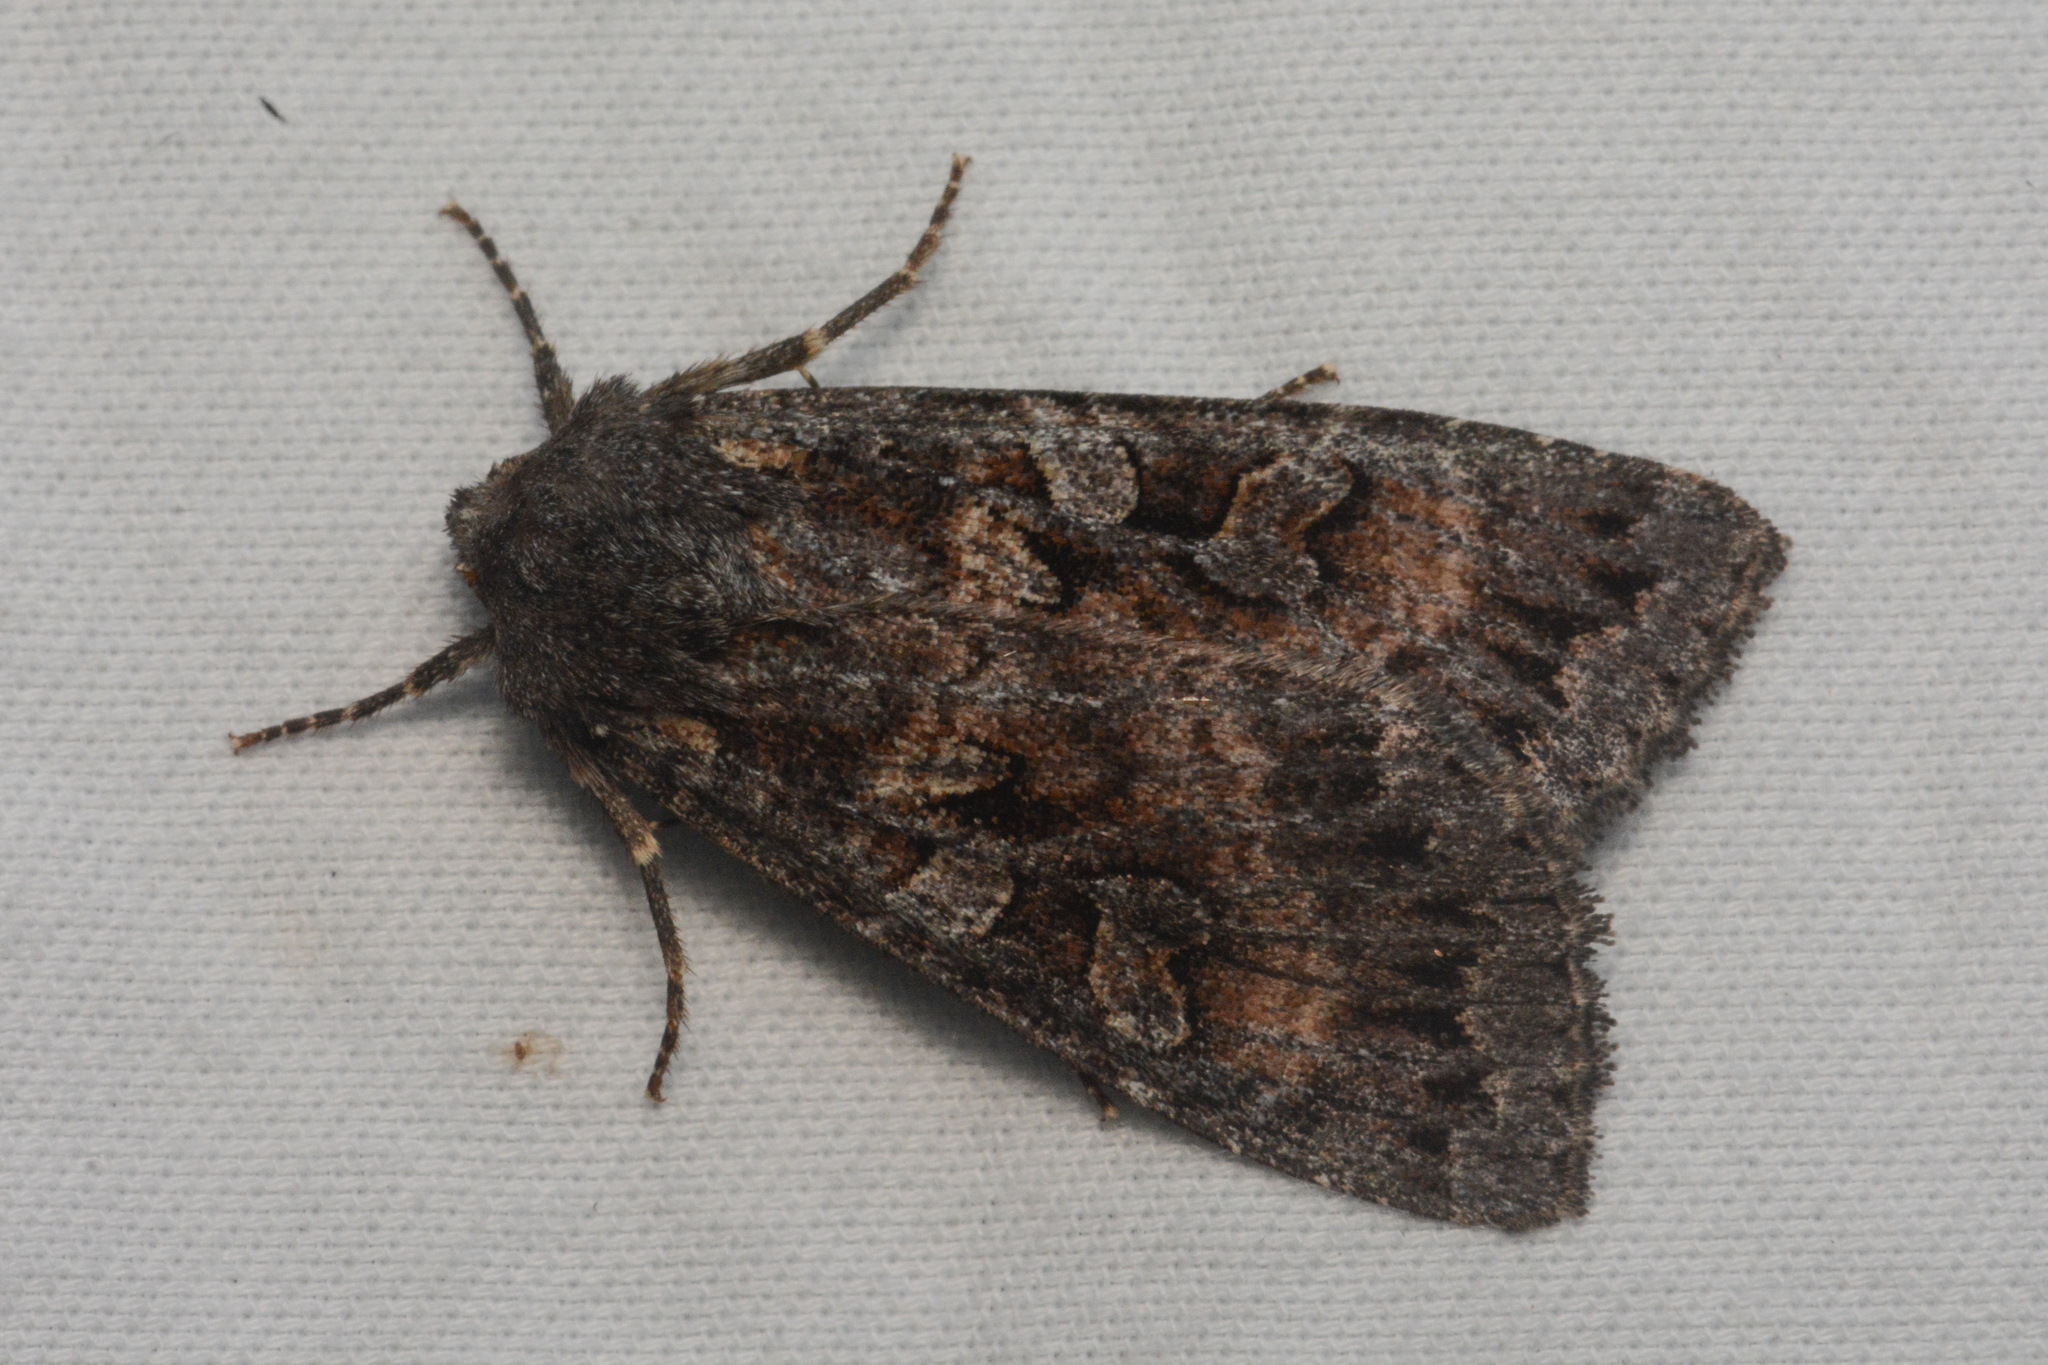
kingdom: Animalia
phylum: Arthropoda
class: Insecta
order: Lepidoptera
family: Noctuidae
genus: Eurois
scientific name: Eurois astricta
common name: Great brown dart
